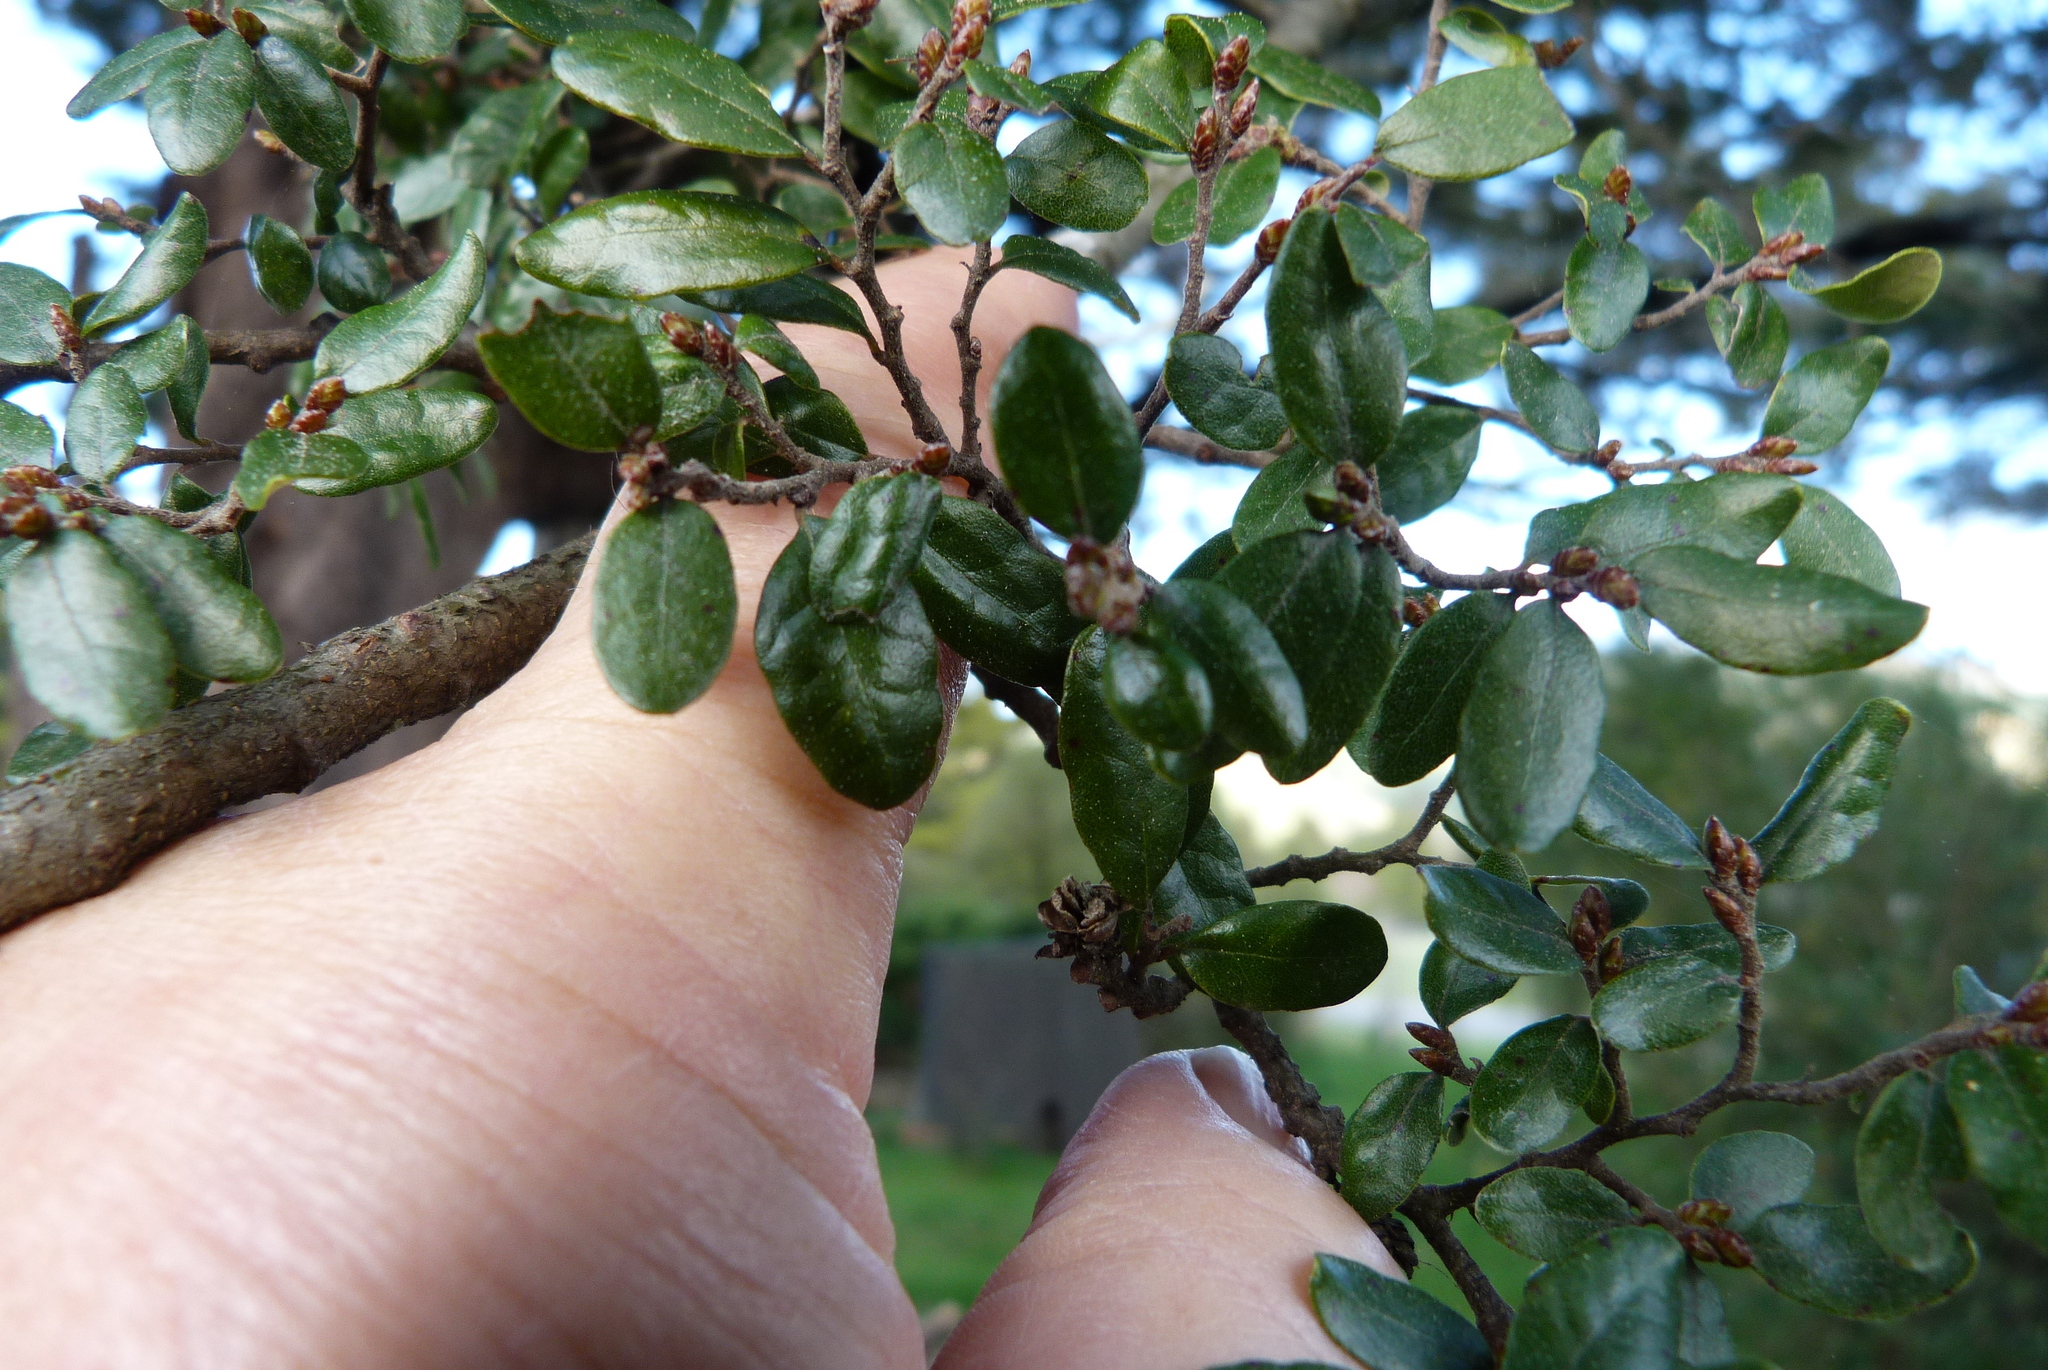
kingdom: Plantae
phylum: Tracheophyta
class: Magnoliopsida
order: Fagales
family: Nothofagaceae
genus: Nothofagus
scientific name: Nothofagus solandri
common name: Black beech
